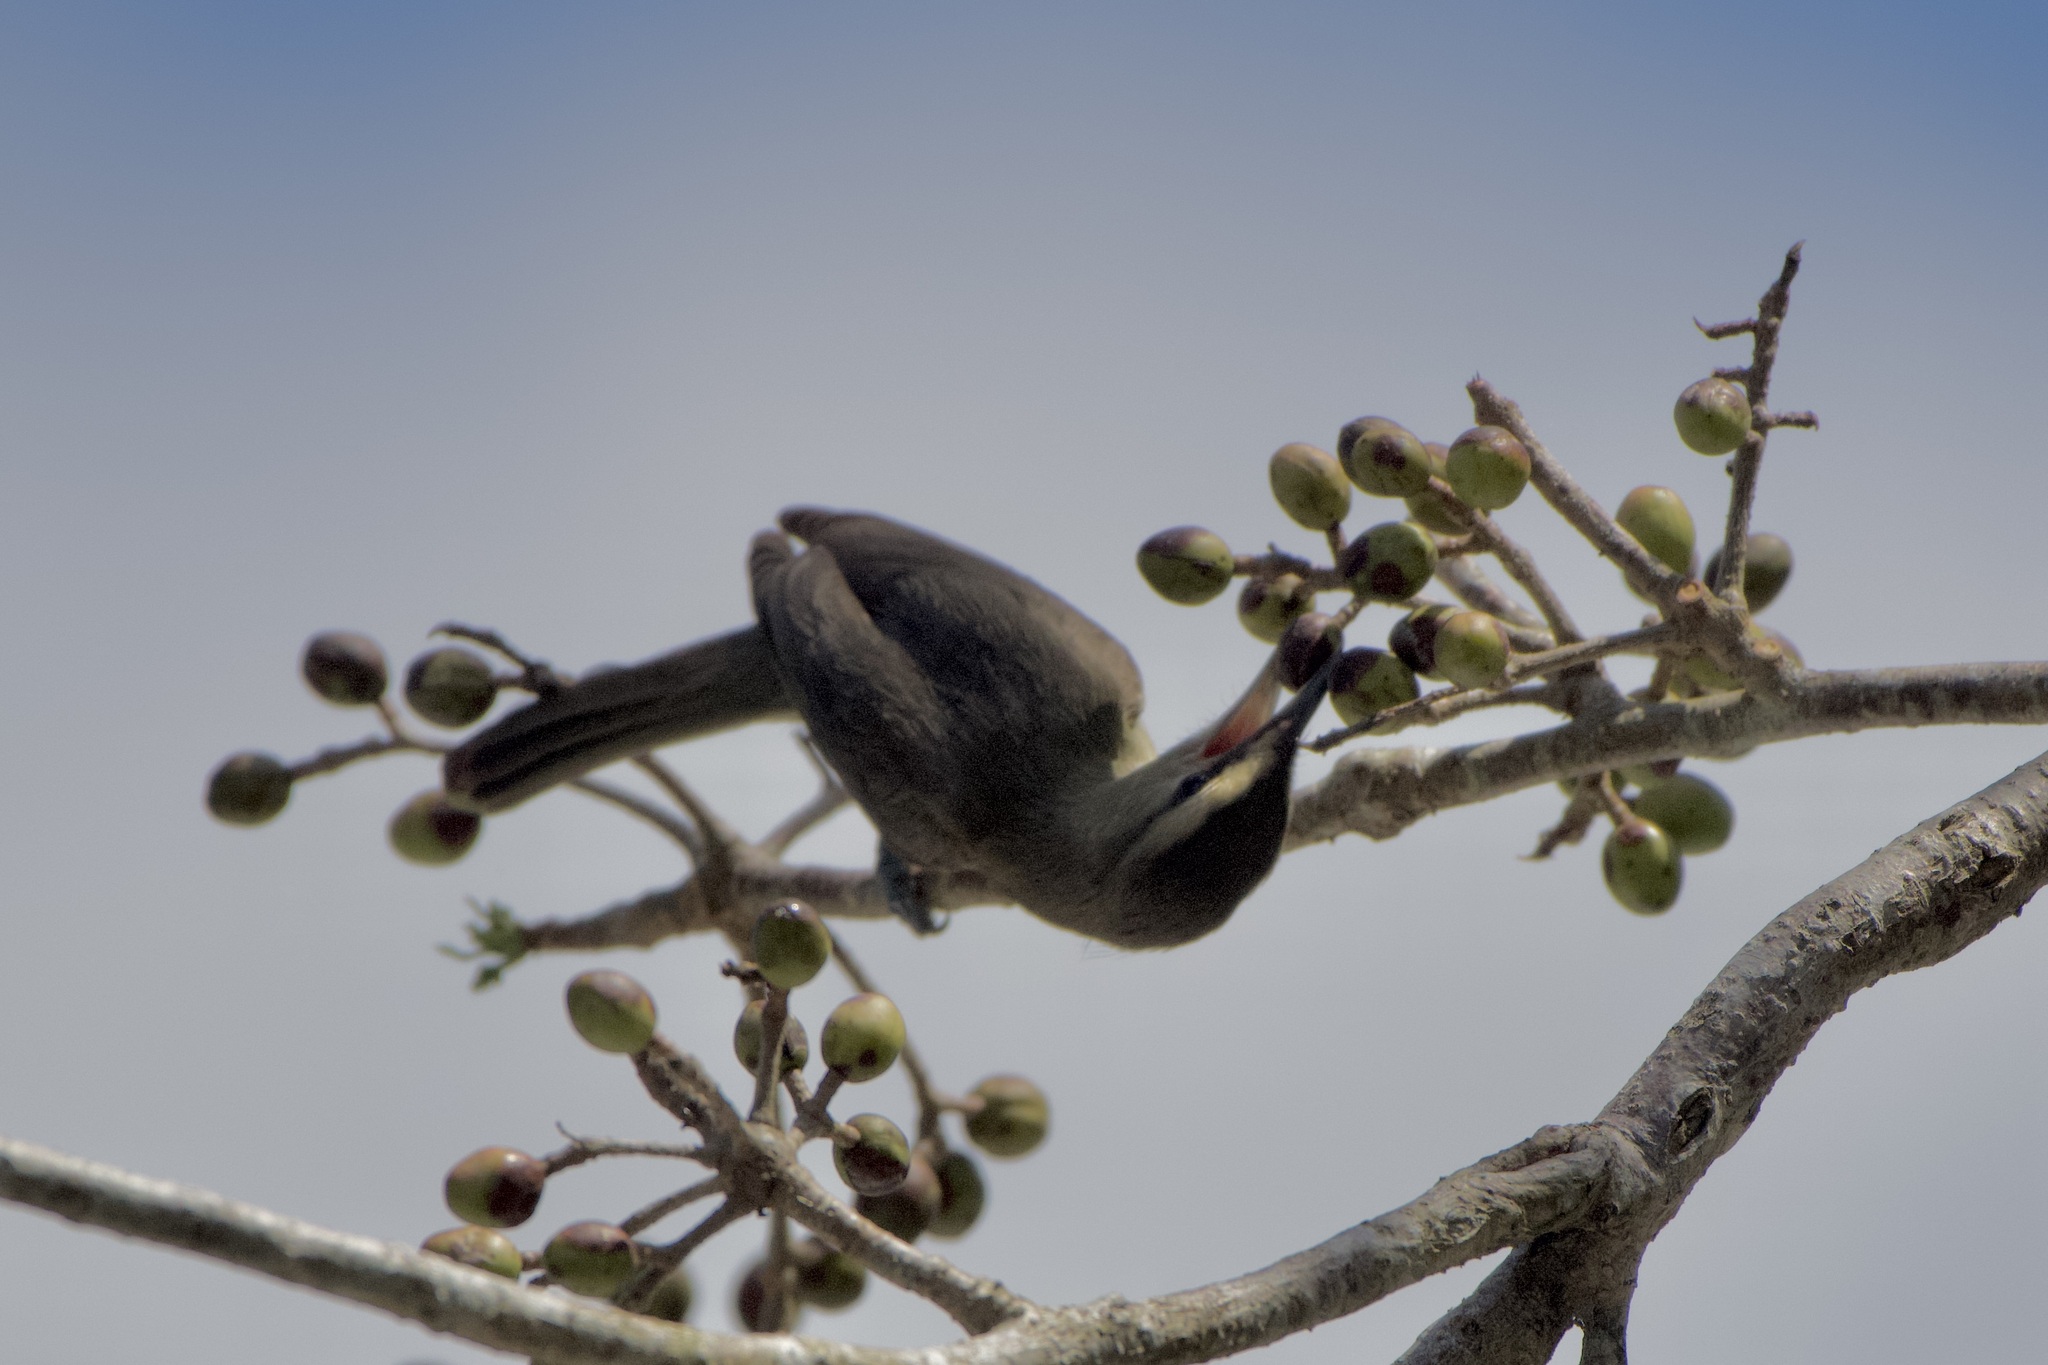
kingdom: Animalia
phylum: Chordata
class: Aves
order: Passeriformes
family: Vireonidae
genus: Vireo
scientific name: Vireo magister
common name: Yucatan vireo
